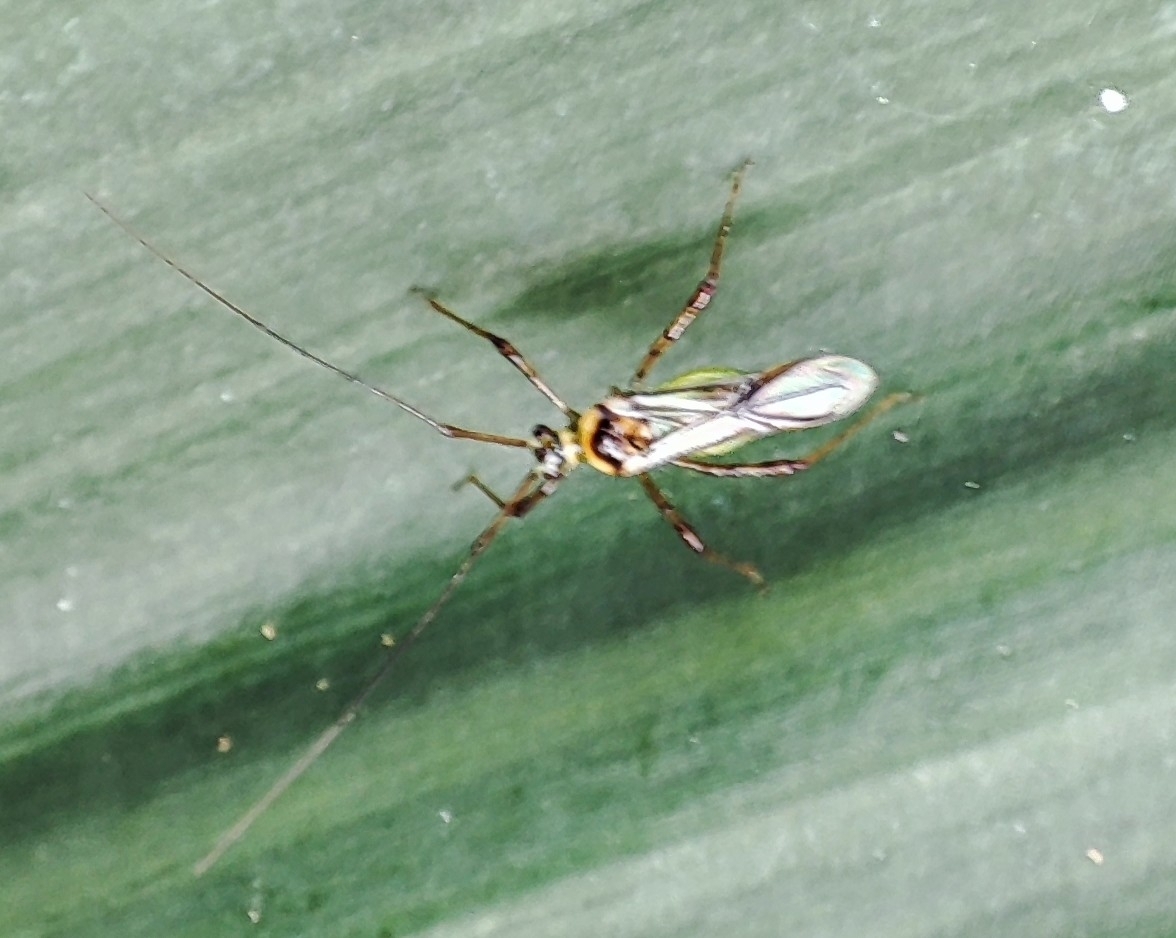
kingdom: Animalia
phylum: Arthropoda
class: Insecta
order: Hemiptera
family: Miridae
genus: Helopeltis
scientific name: Helopeltis theivora
